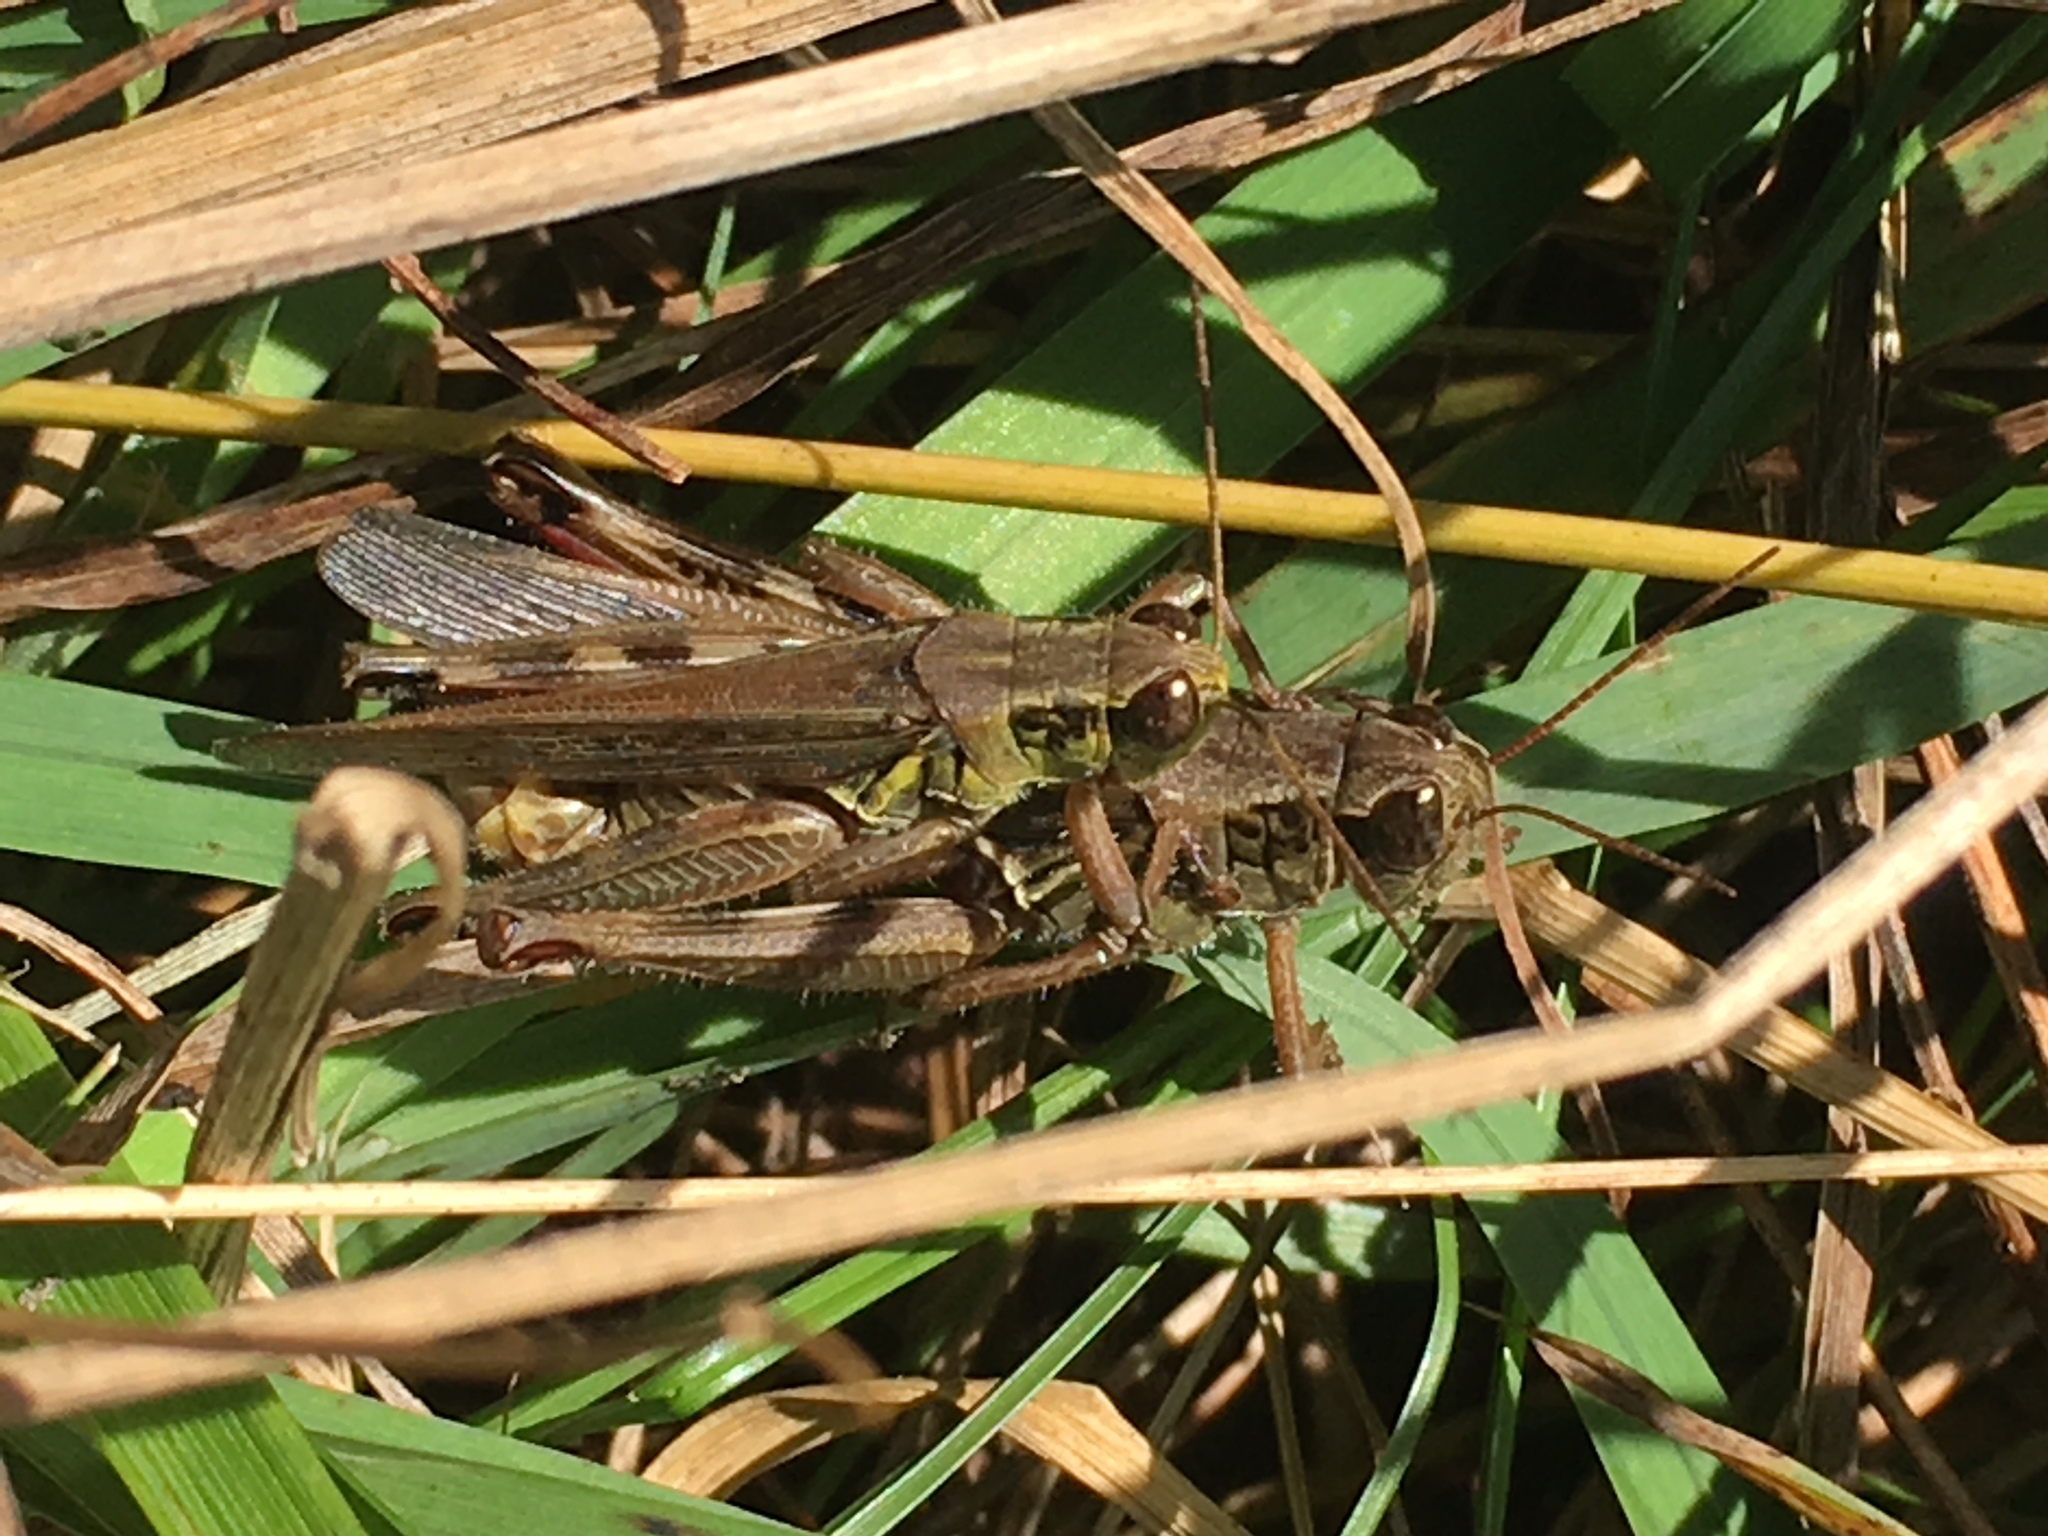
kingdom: Animalia
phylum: Arthropoda
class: Insecta
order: Orthoptera
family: Acrididae
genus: Melanoplus
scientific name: Melanoplus femurrubrum
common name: Red-legged grasshopper
